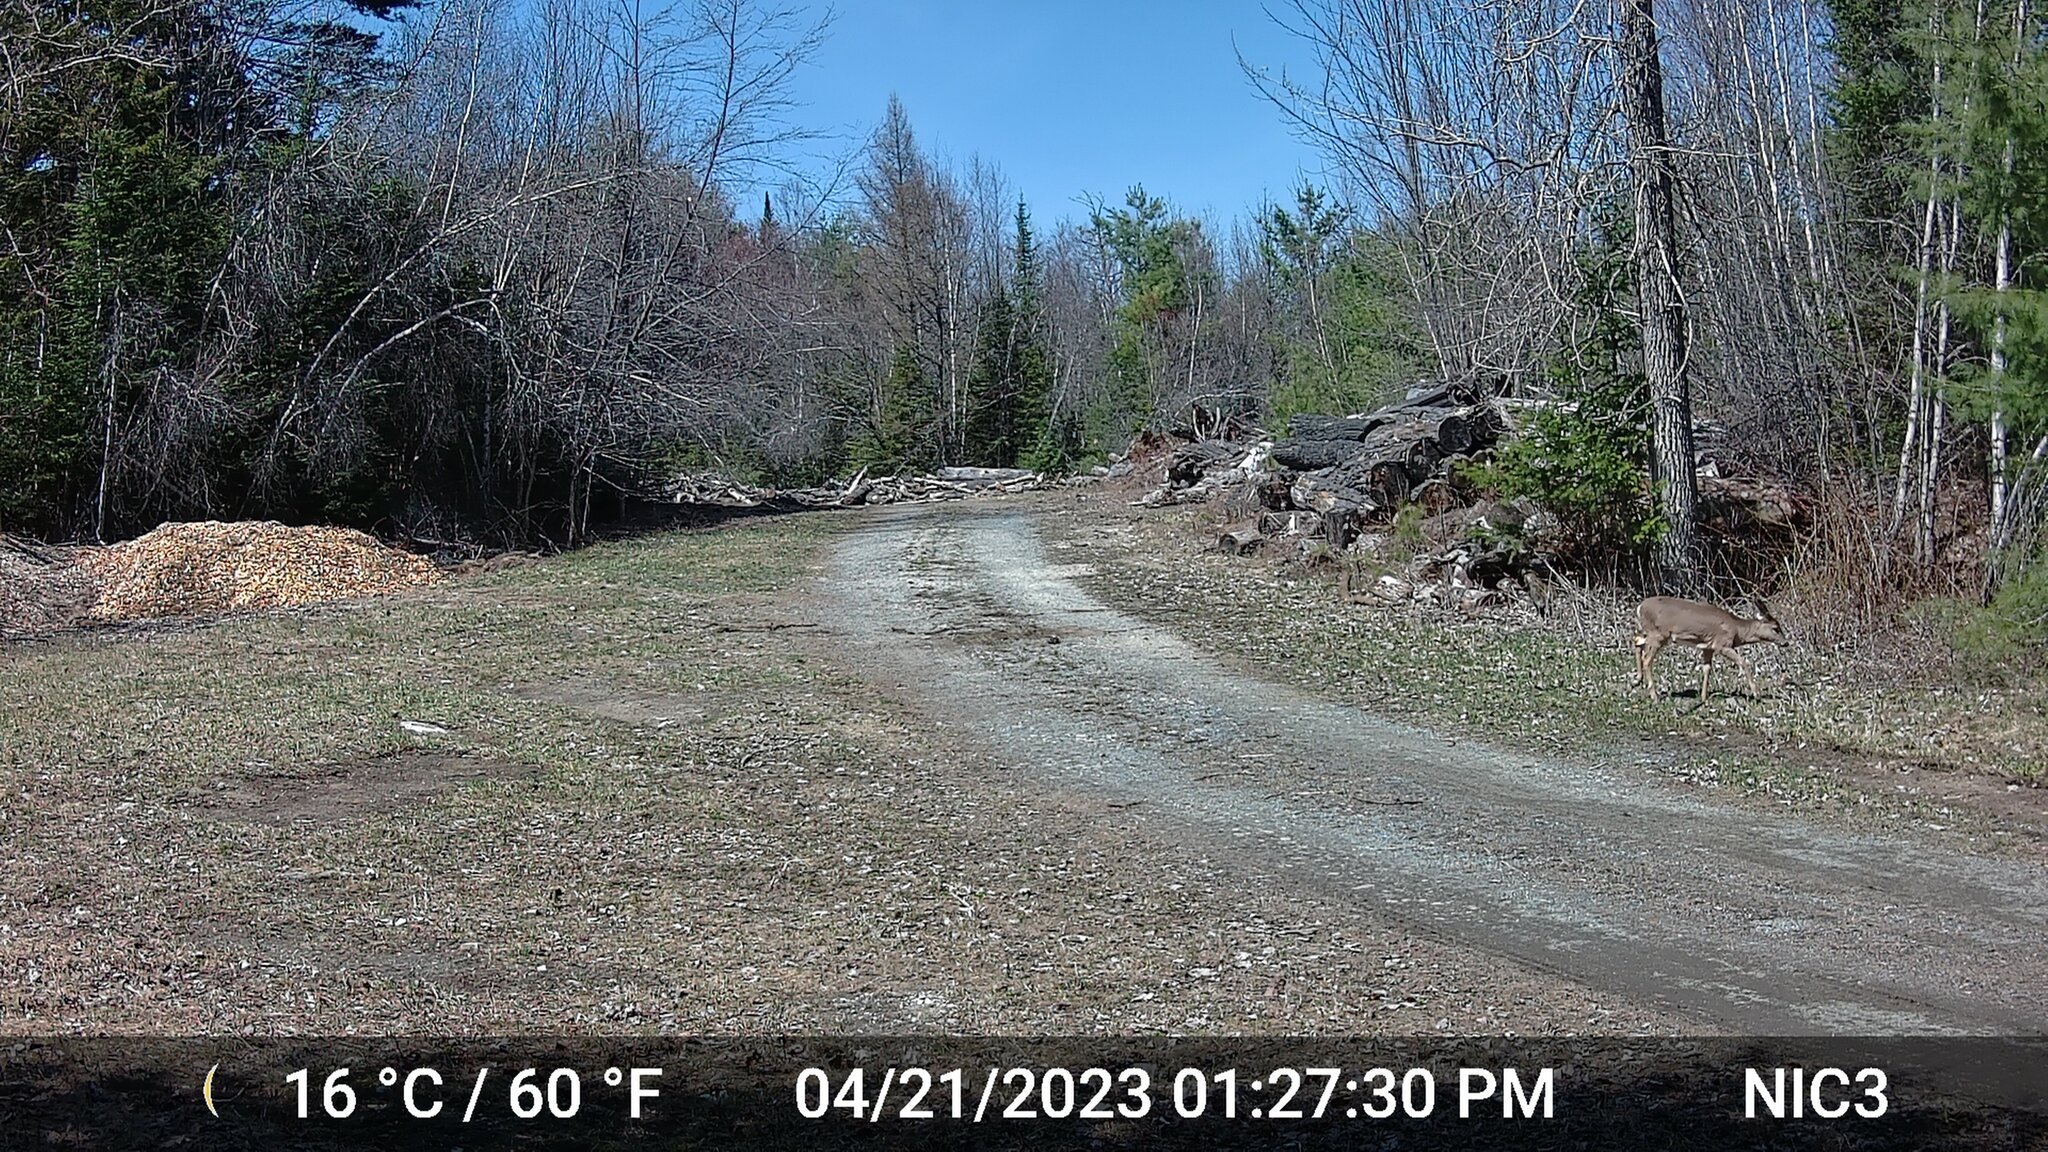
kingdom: Animalia
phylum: Chordata
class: Mammalia
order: Artiodactyla
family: Cervidae
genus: Odocoileus
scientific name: Odocoileus virginianus
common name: White-tailed deer
